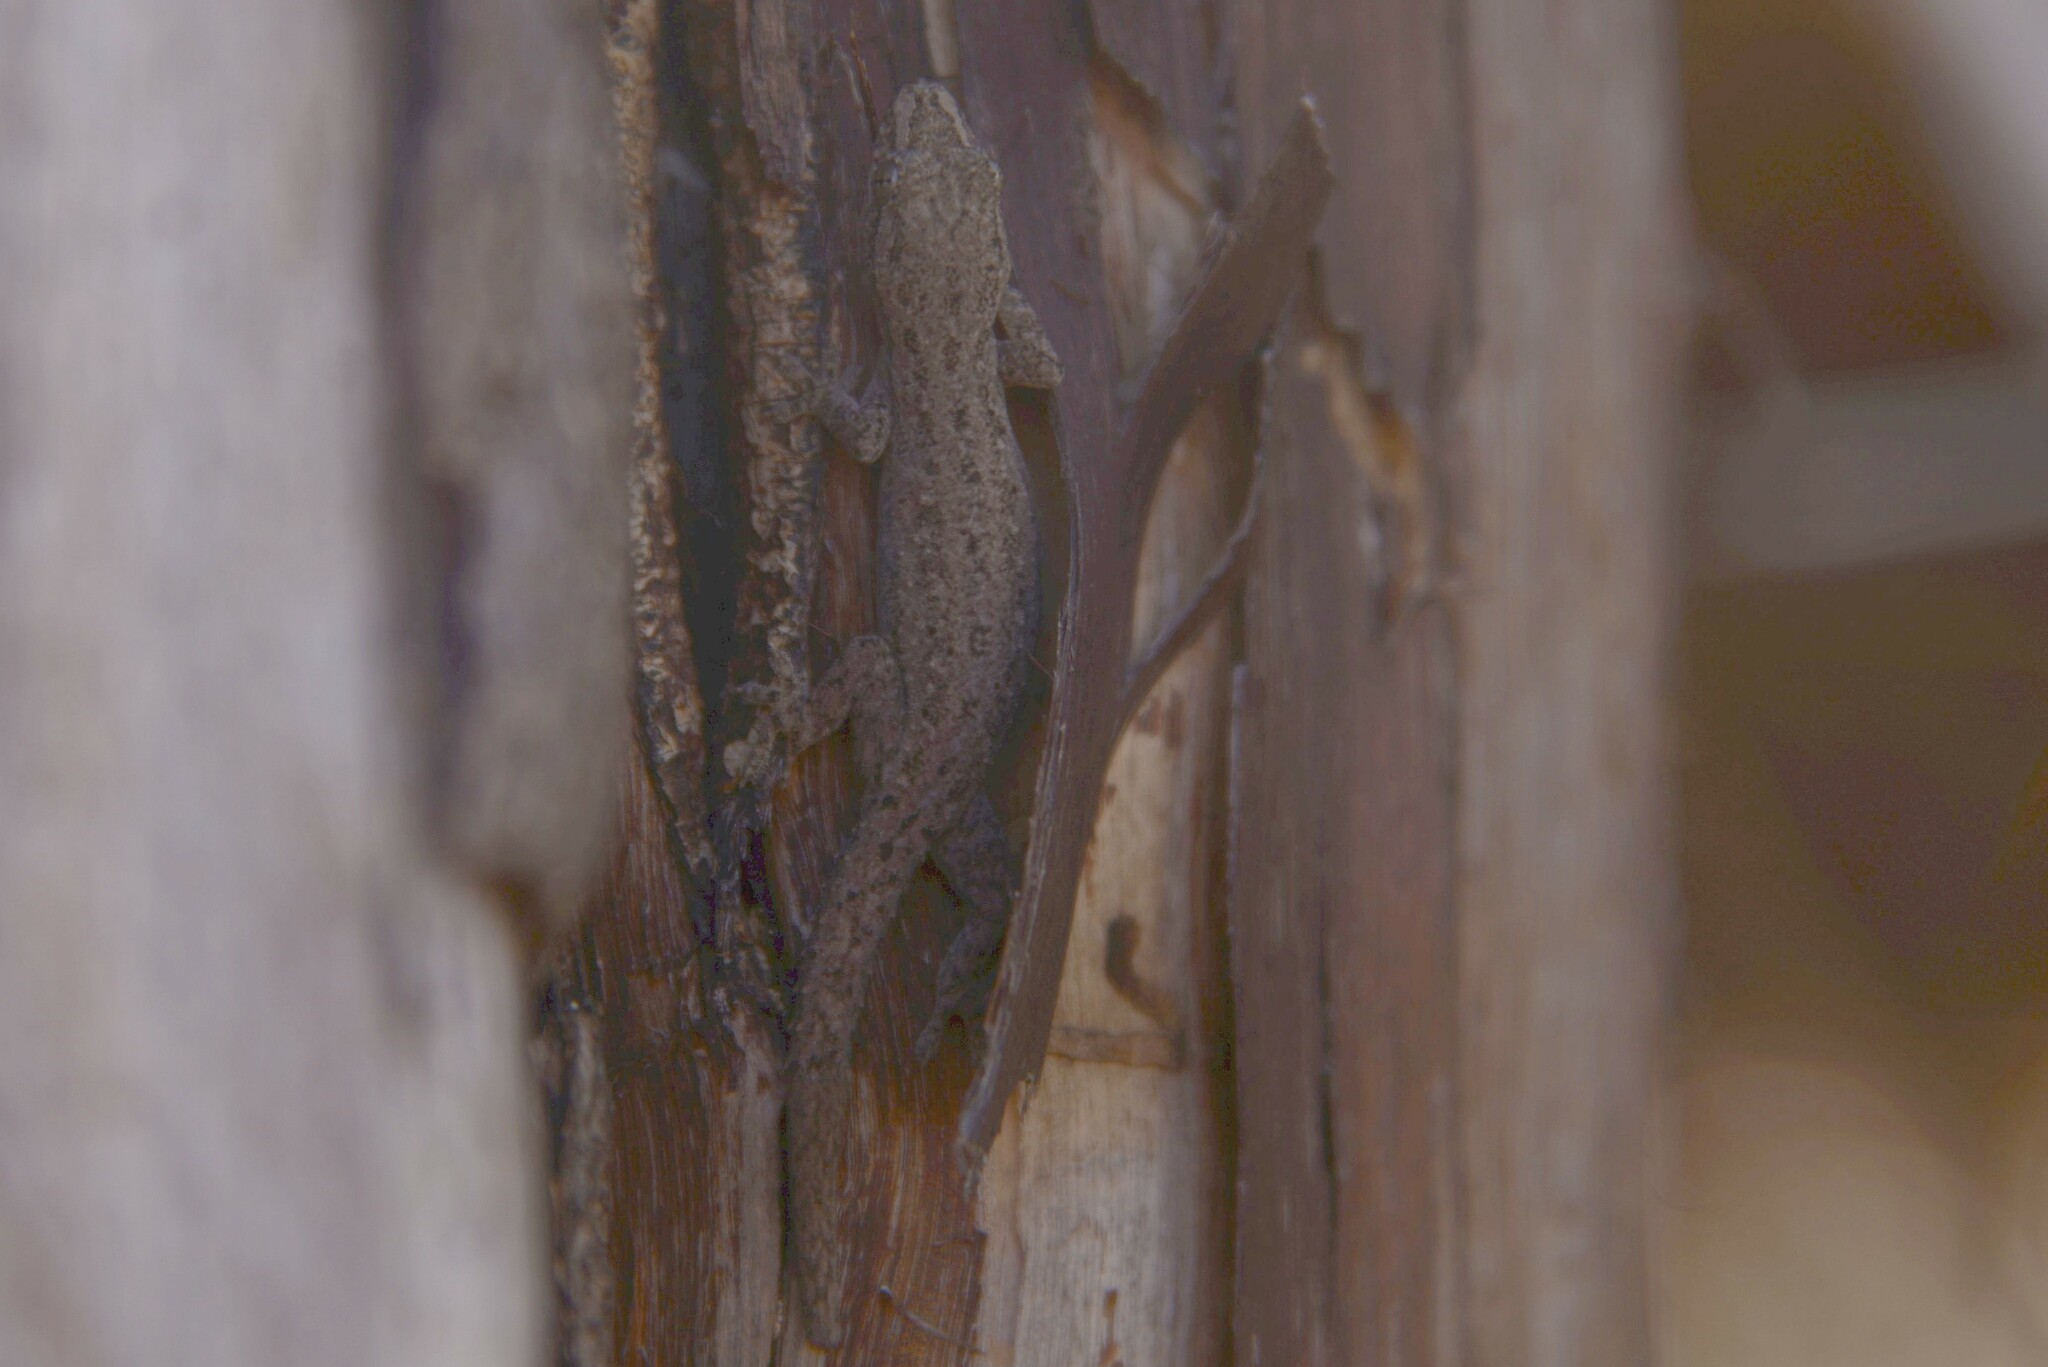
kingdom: Animalia
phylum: Chordata
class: Squamata
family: Gekkonidae
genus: Hemidactylus
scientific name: Hemidactylus frenatus
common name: Common house gecko
